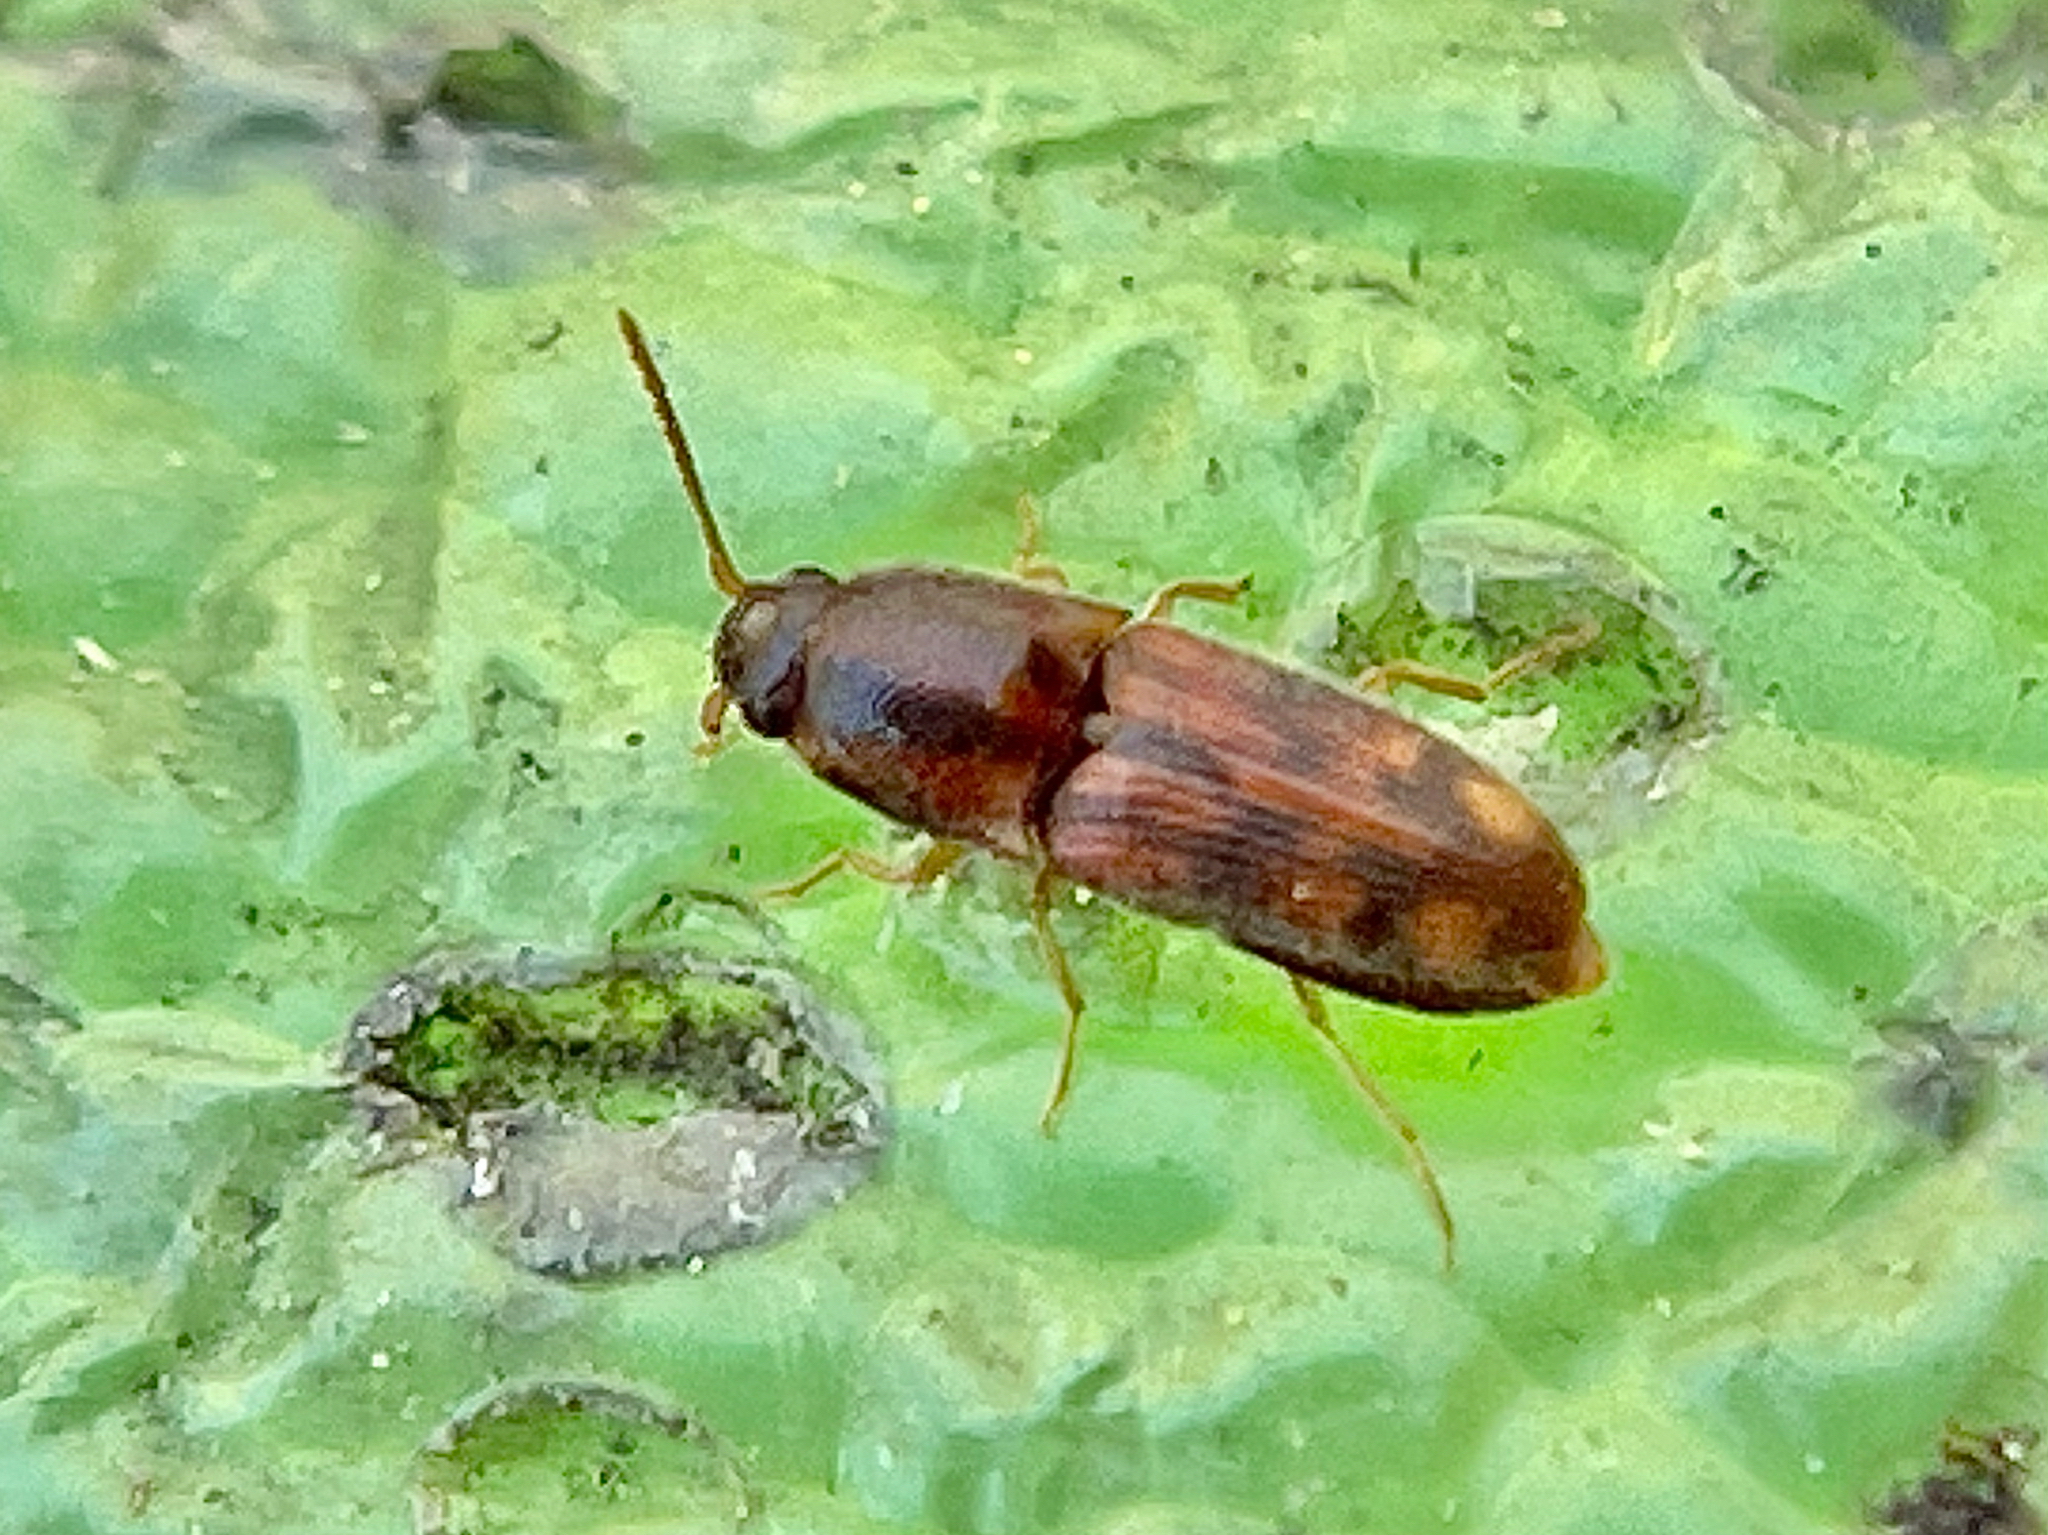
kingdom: Animalia
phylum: Arthropoda
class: Insecta
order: Coleoptera
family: Elateridae
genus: Monocrepidius
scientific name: Monocrepidius bellus
